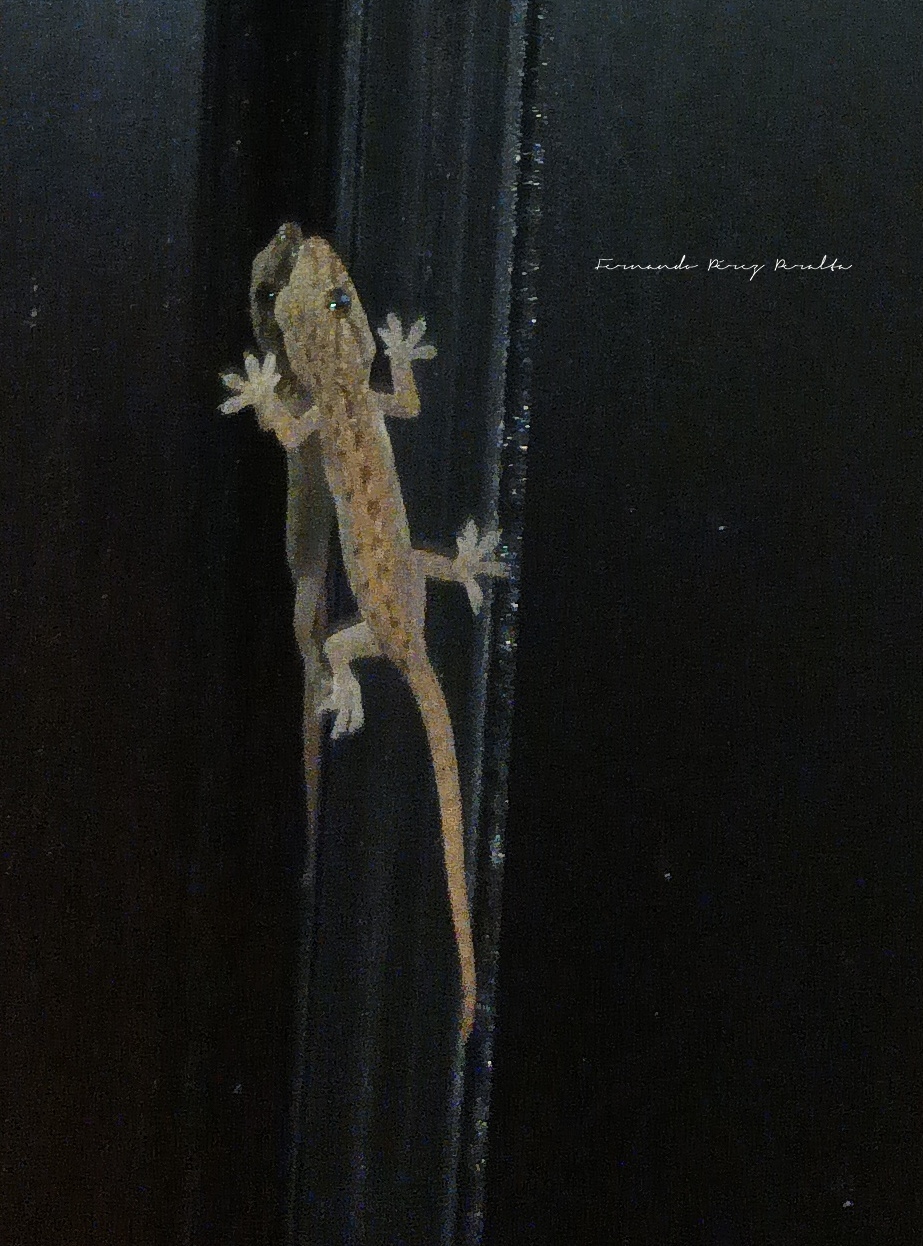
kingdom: Animalia
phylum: Chordata
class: Squamata
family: Gekkonidae
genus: Hemidactylus
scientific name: Hemidactylus frenatus
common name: Common house gecko
